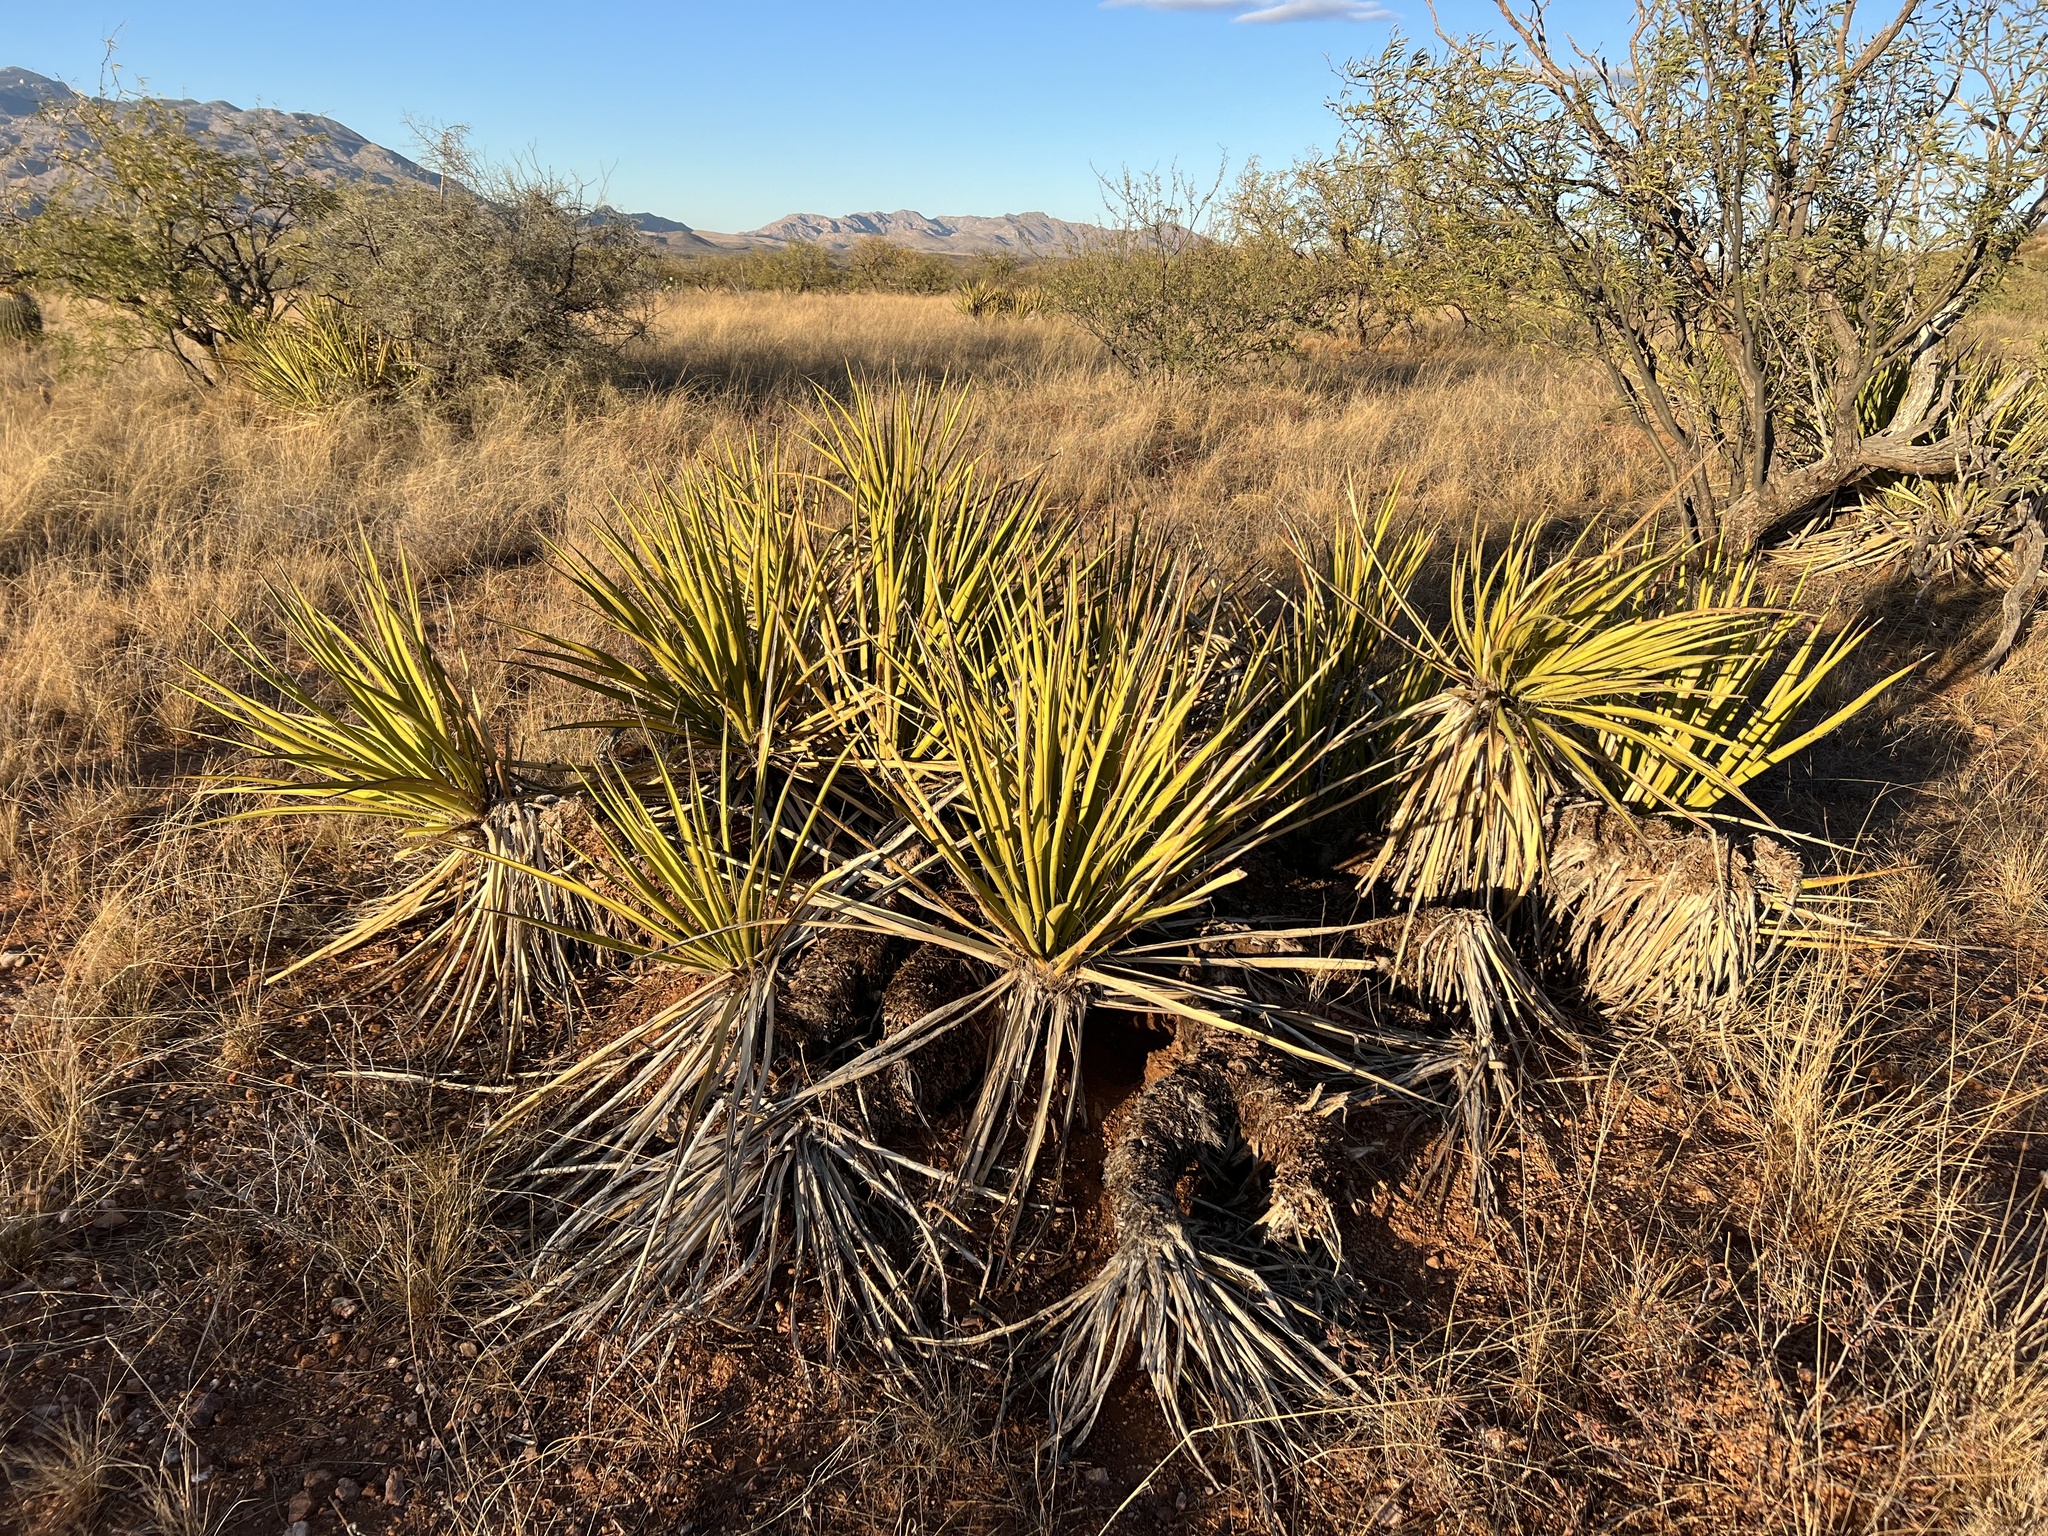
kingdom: Plantae
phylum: Tracheophyta
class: Liliopsida
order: Asparagales
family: Asparagaceae
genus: Yucca
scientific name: Yucca baccata
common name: Banana yucca
